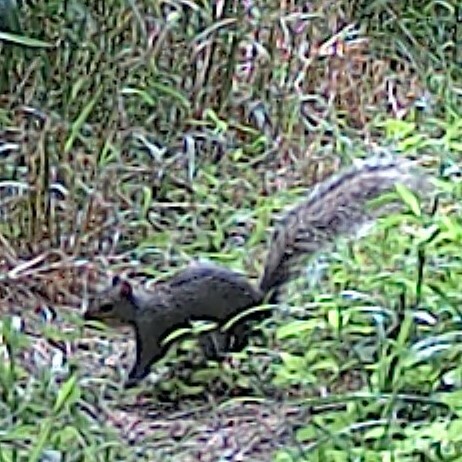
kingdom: Animalia
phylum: Chordata
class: Mammalia
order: Rodentia
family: Sciuridae
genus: Sciurus
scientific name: Sciurus carolinensis
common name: Eastern gray squirrel
